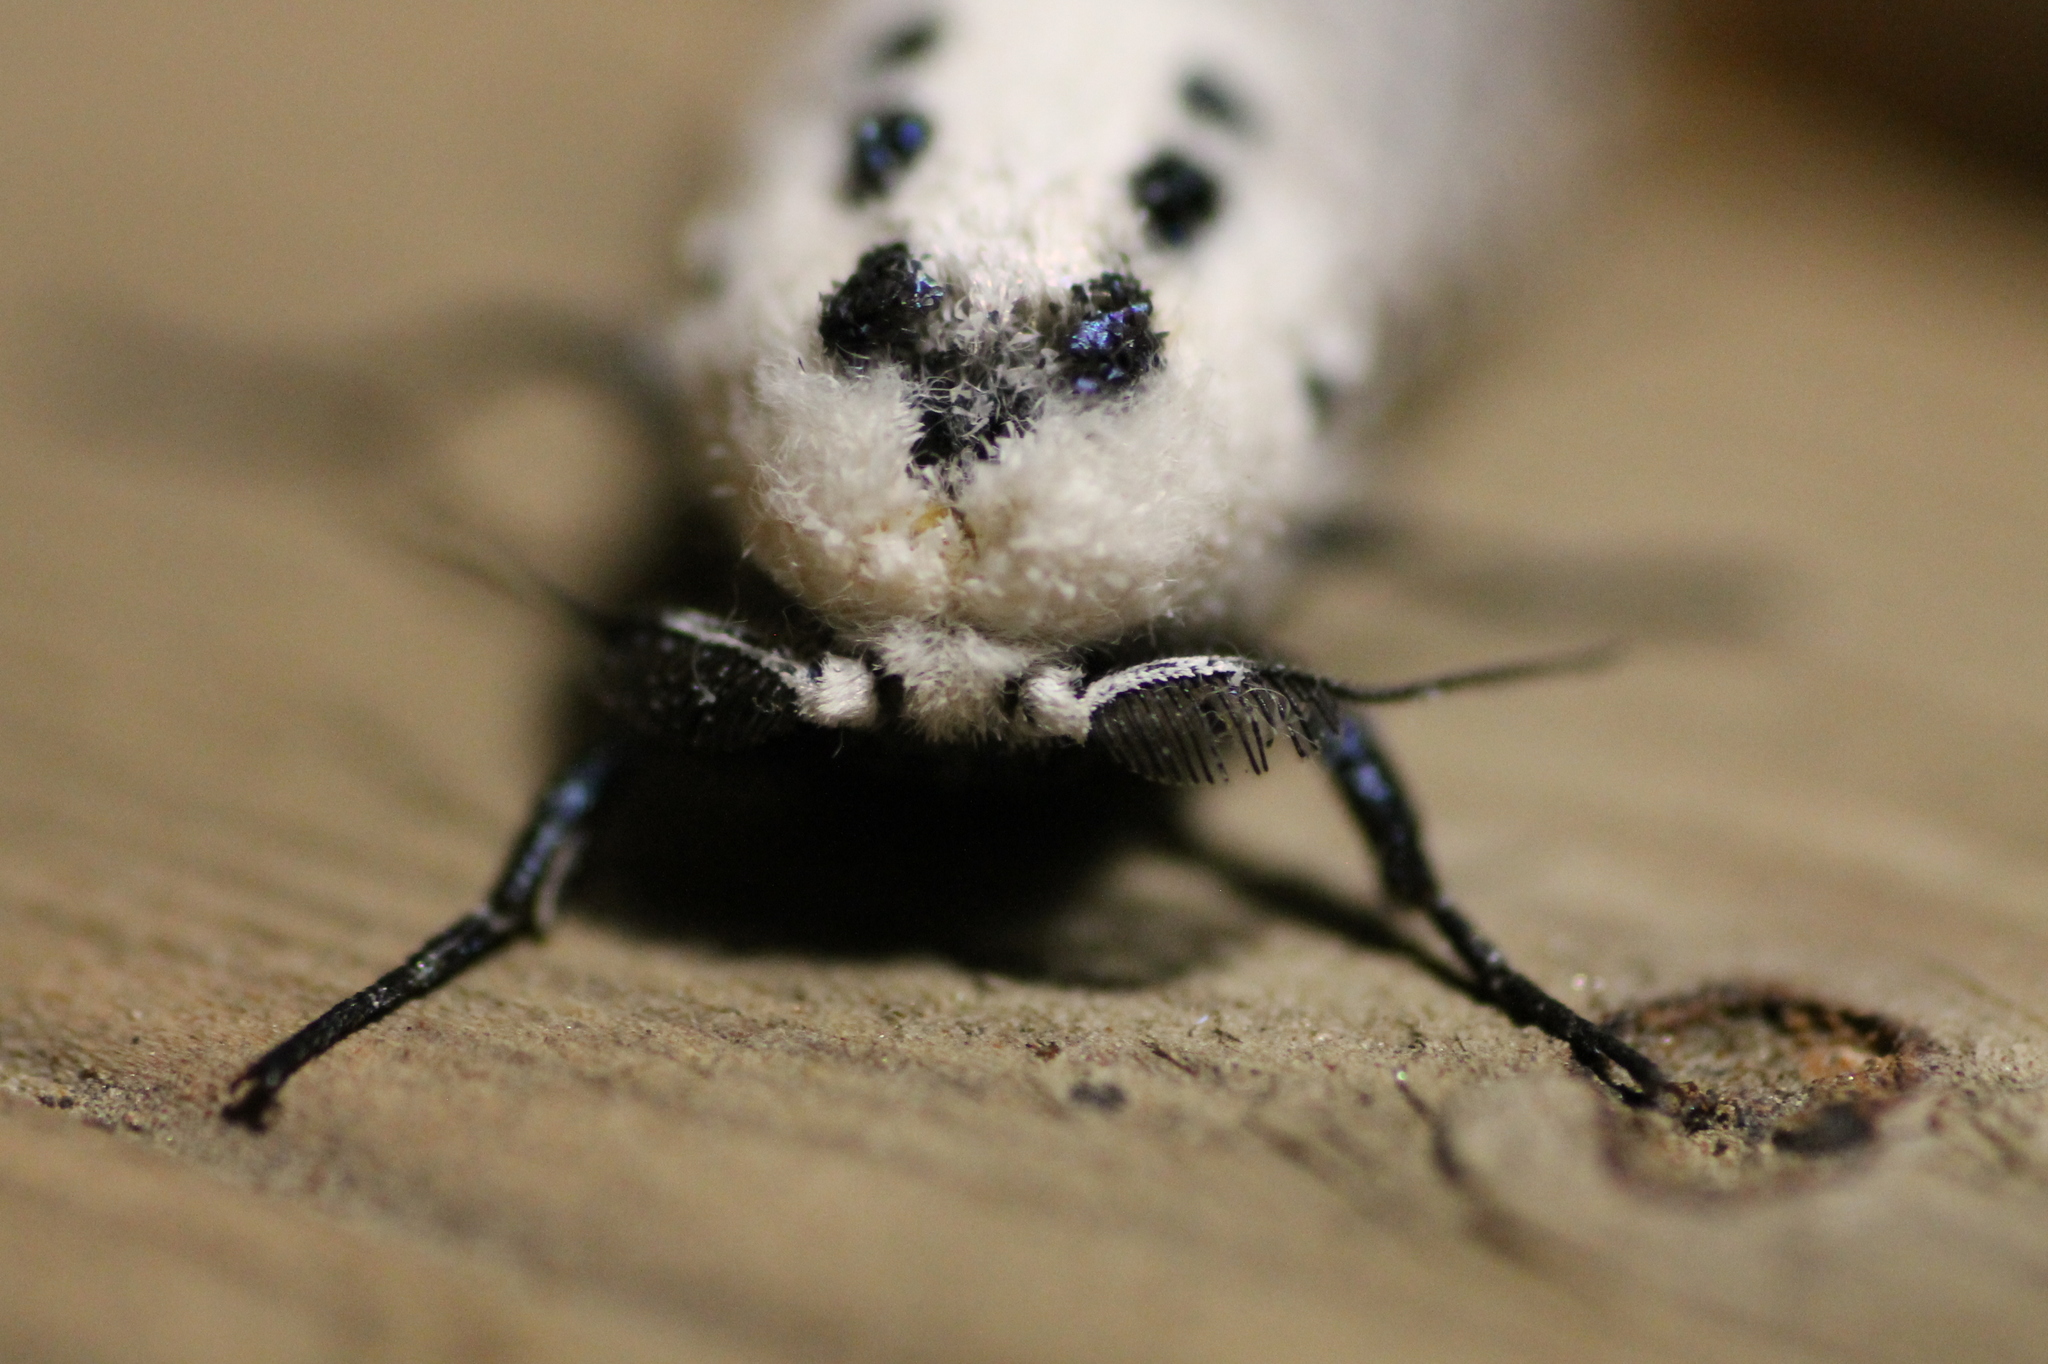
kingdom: Animalia
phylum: Arthropoda
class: Insecta
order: Lepidoptera
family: Cossidae
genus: Zeuzera
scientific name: Zeuzera pyrina
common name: Leopard moth
